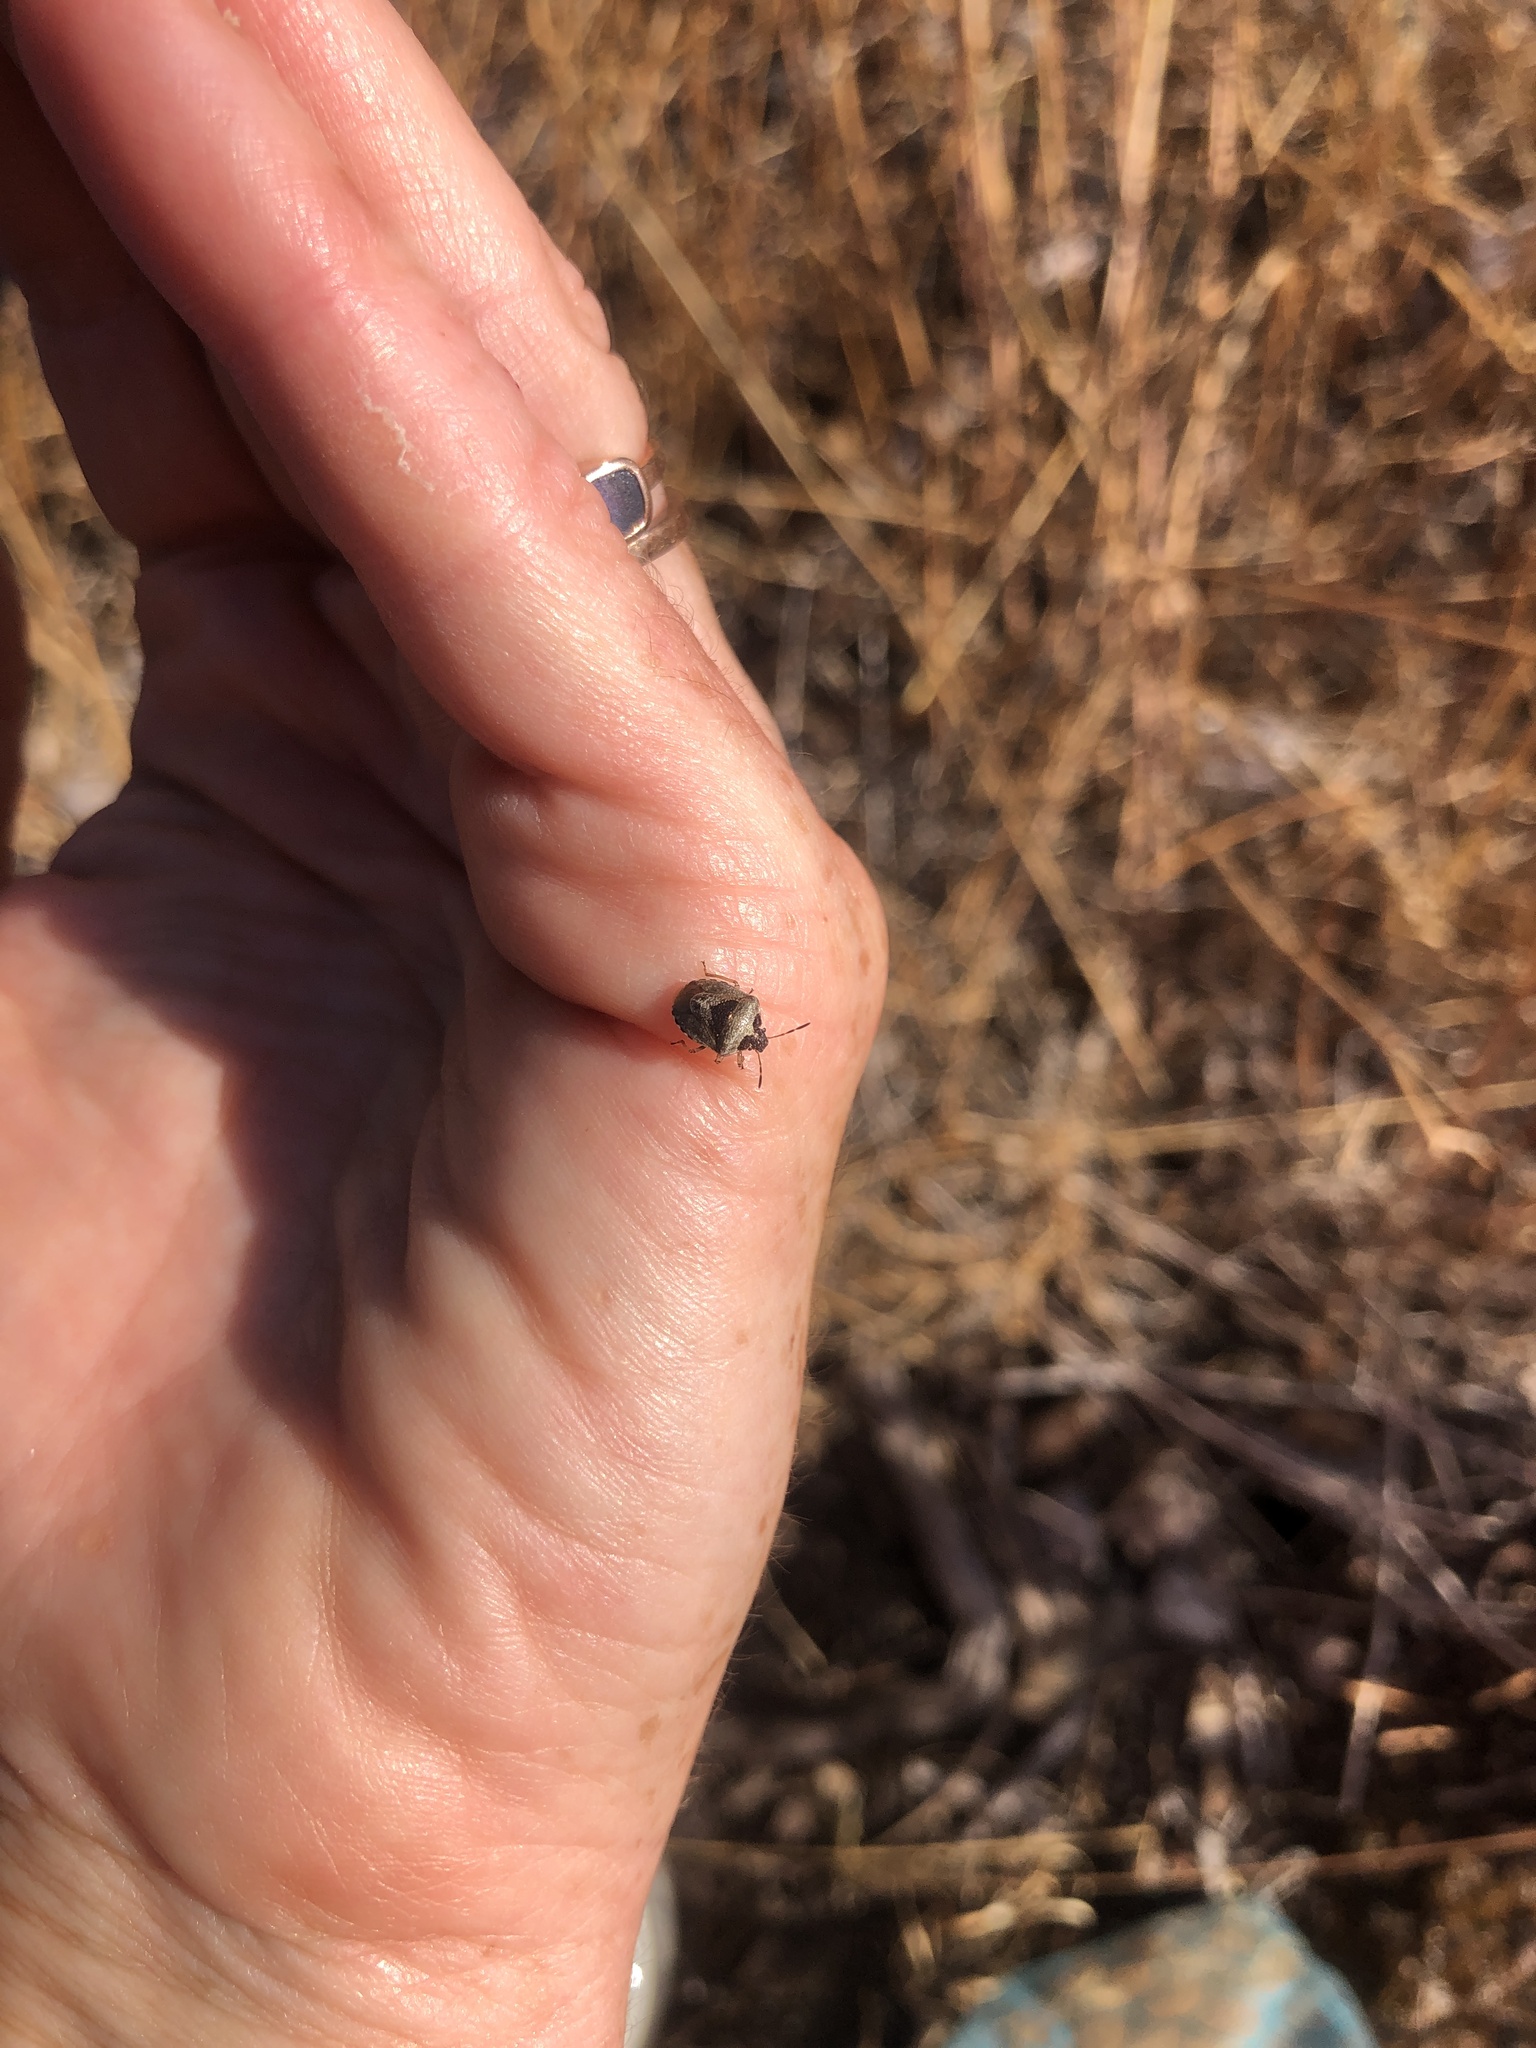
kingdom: Animalia
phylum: Arthropoda
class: Insecta
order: Hemiptera
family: Pentatomidae
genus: Eysarcoris
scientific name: Eysarcoris venustissimus
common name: Woundwort shieldbug
